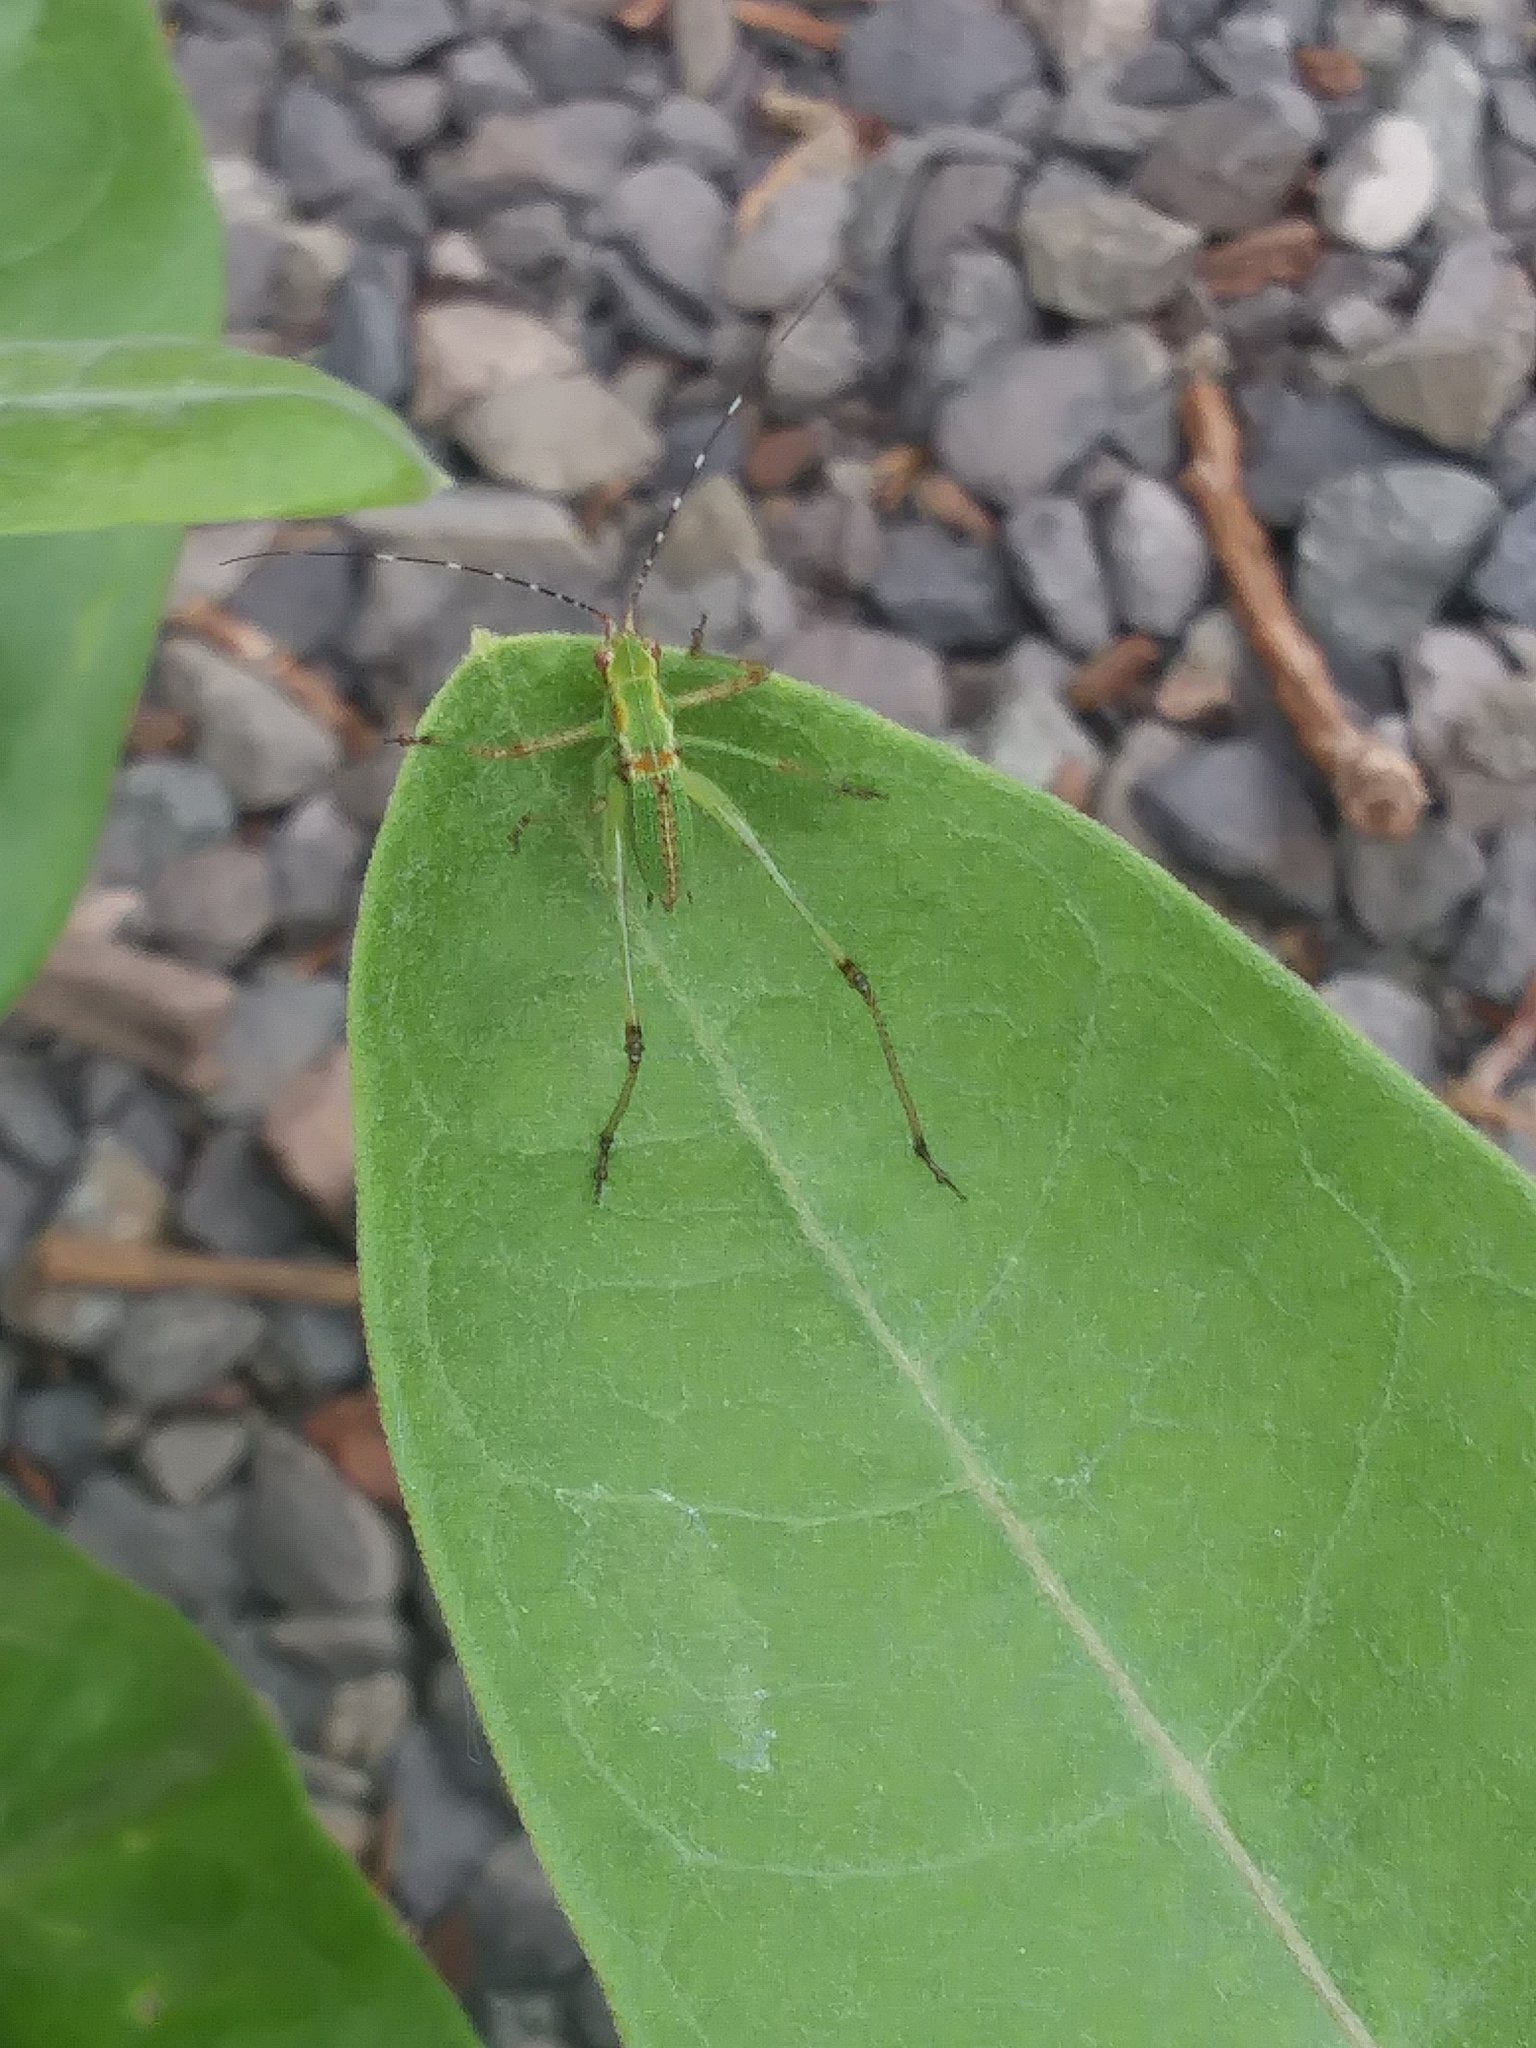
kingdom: Animalia
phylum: Arthropoda
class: Insecta
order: Orthoptera
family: Tettigoniidae
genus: Scudderia
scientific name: Scudderia furcata
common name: Fork-tailed bush katydid
